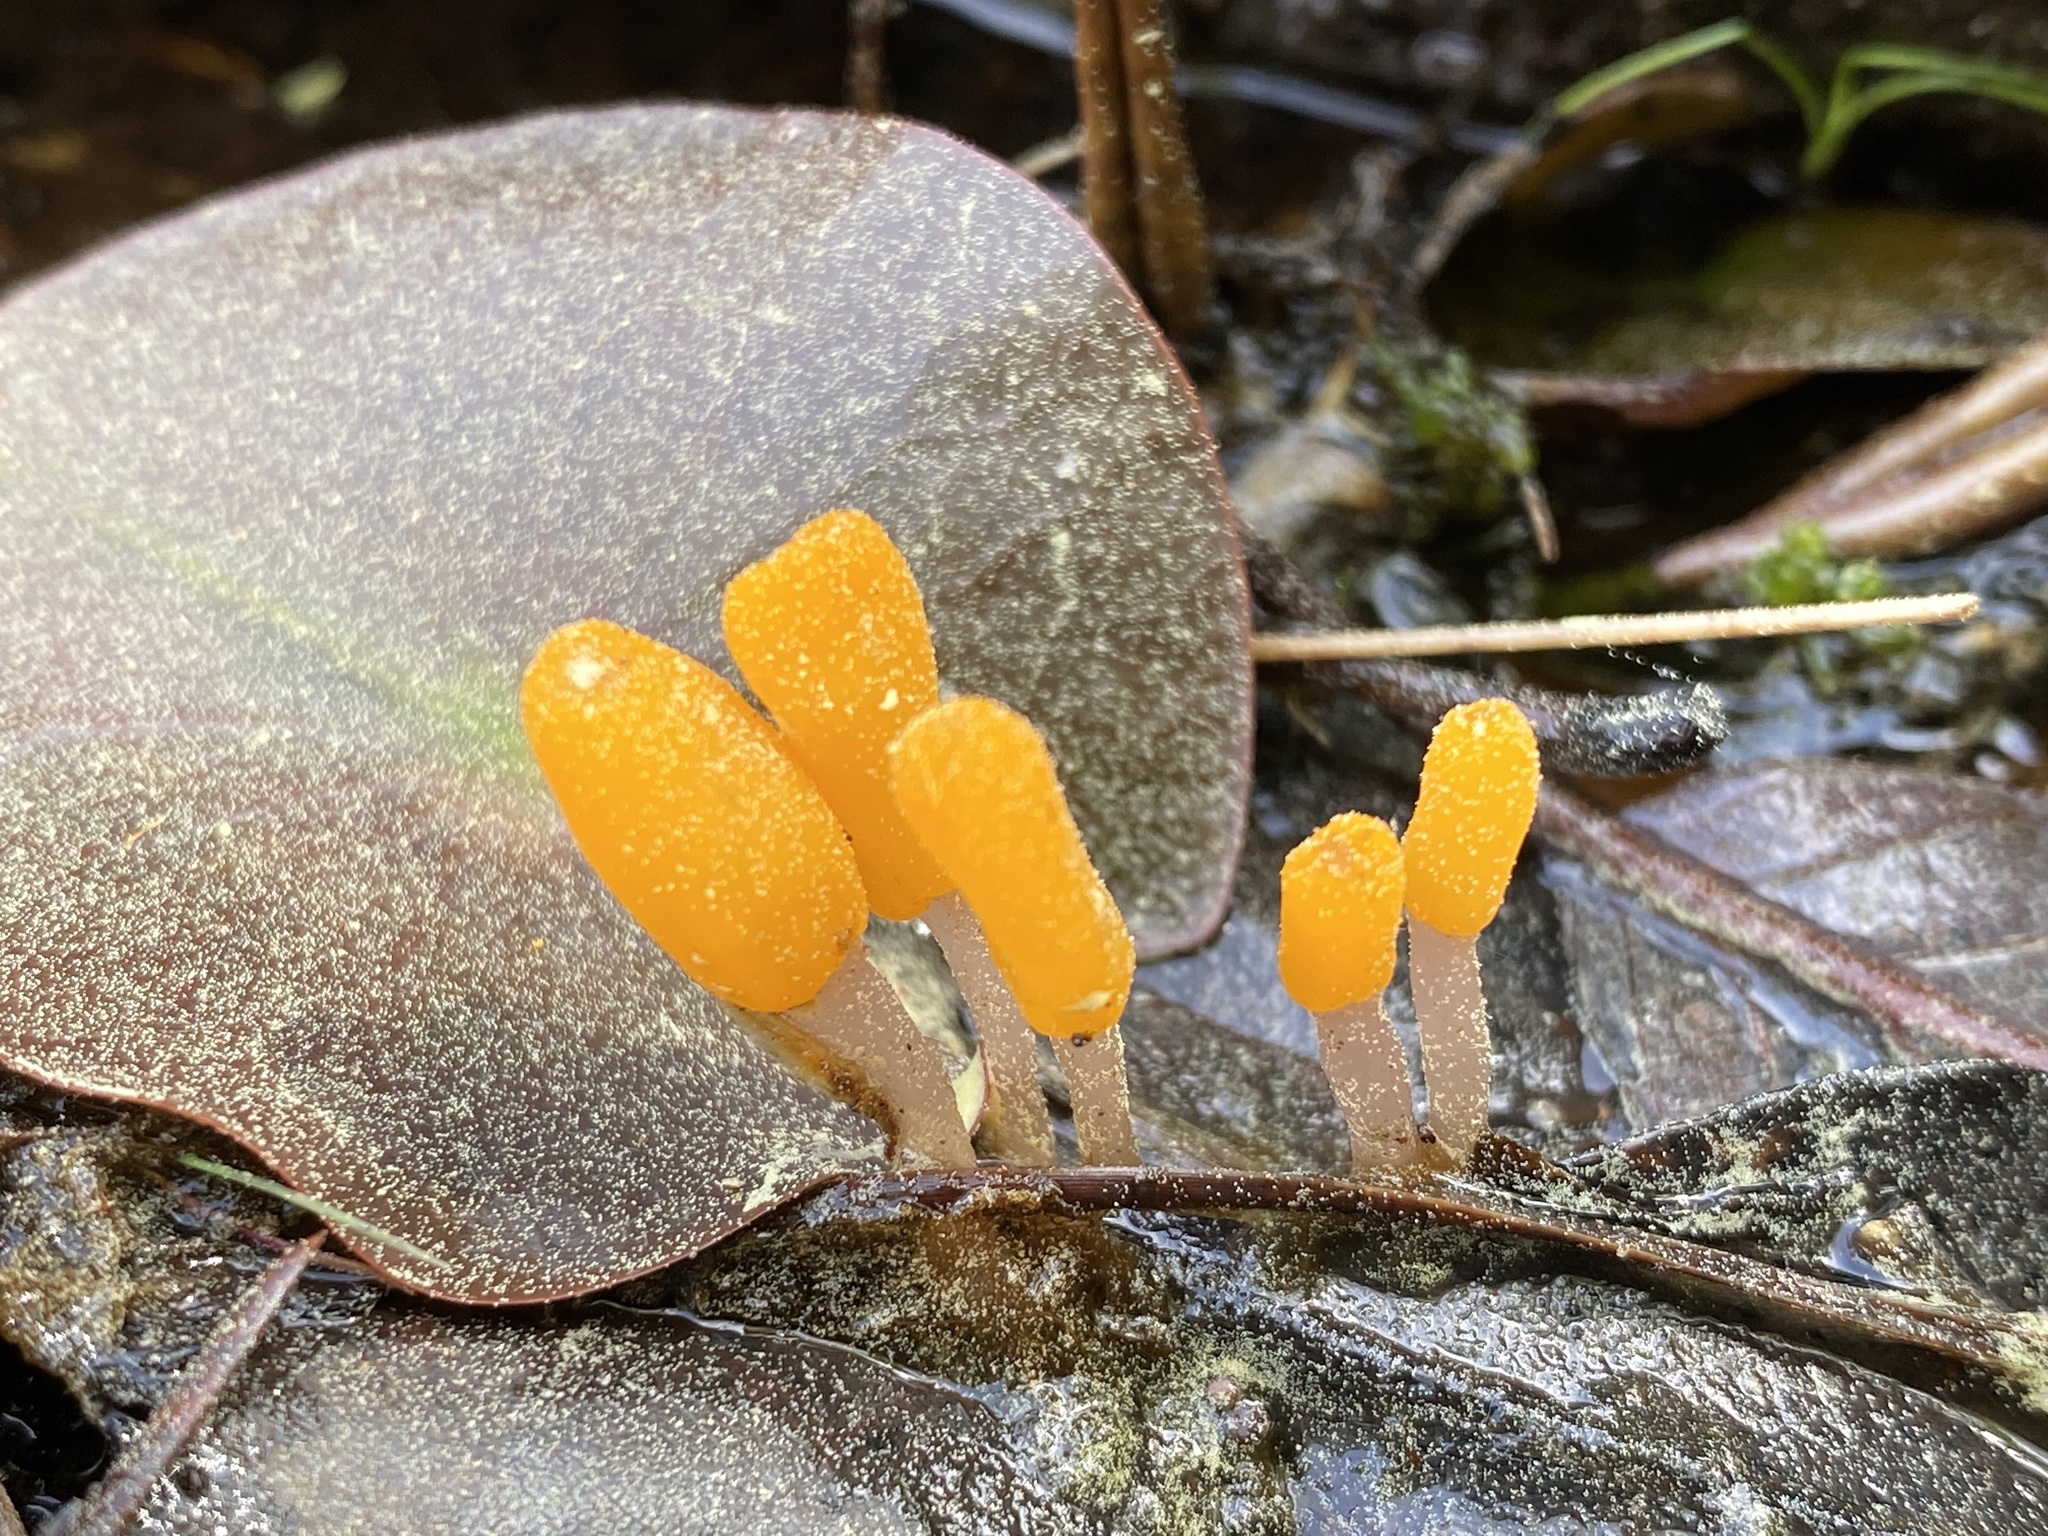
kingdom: Fungi
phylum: Ascomycota
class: Leotiomycetes
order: Helotiales
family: Sclerotiniaceae
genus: Mitrula
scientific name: Mitrula elegans
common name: Swamp beacon
